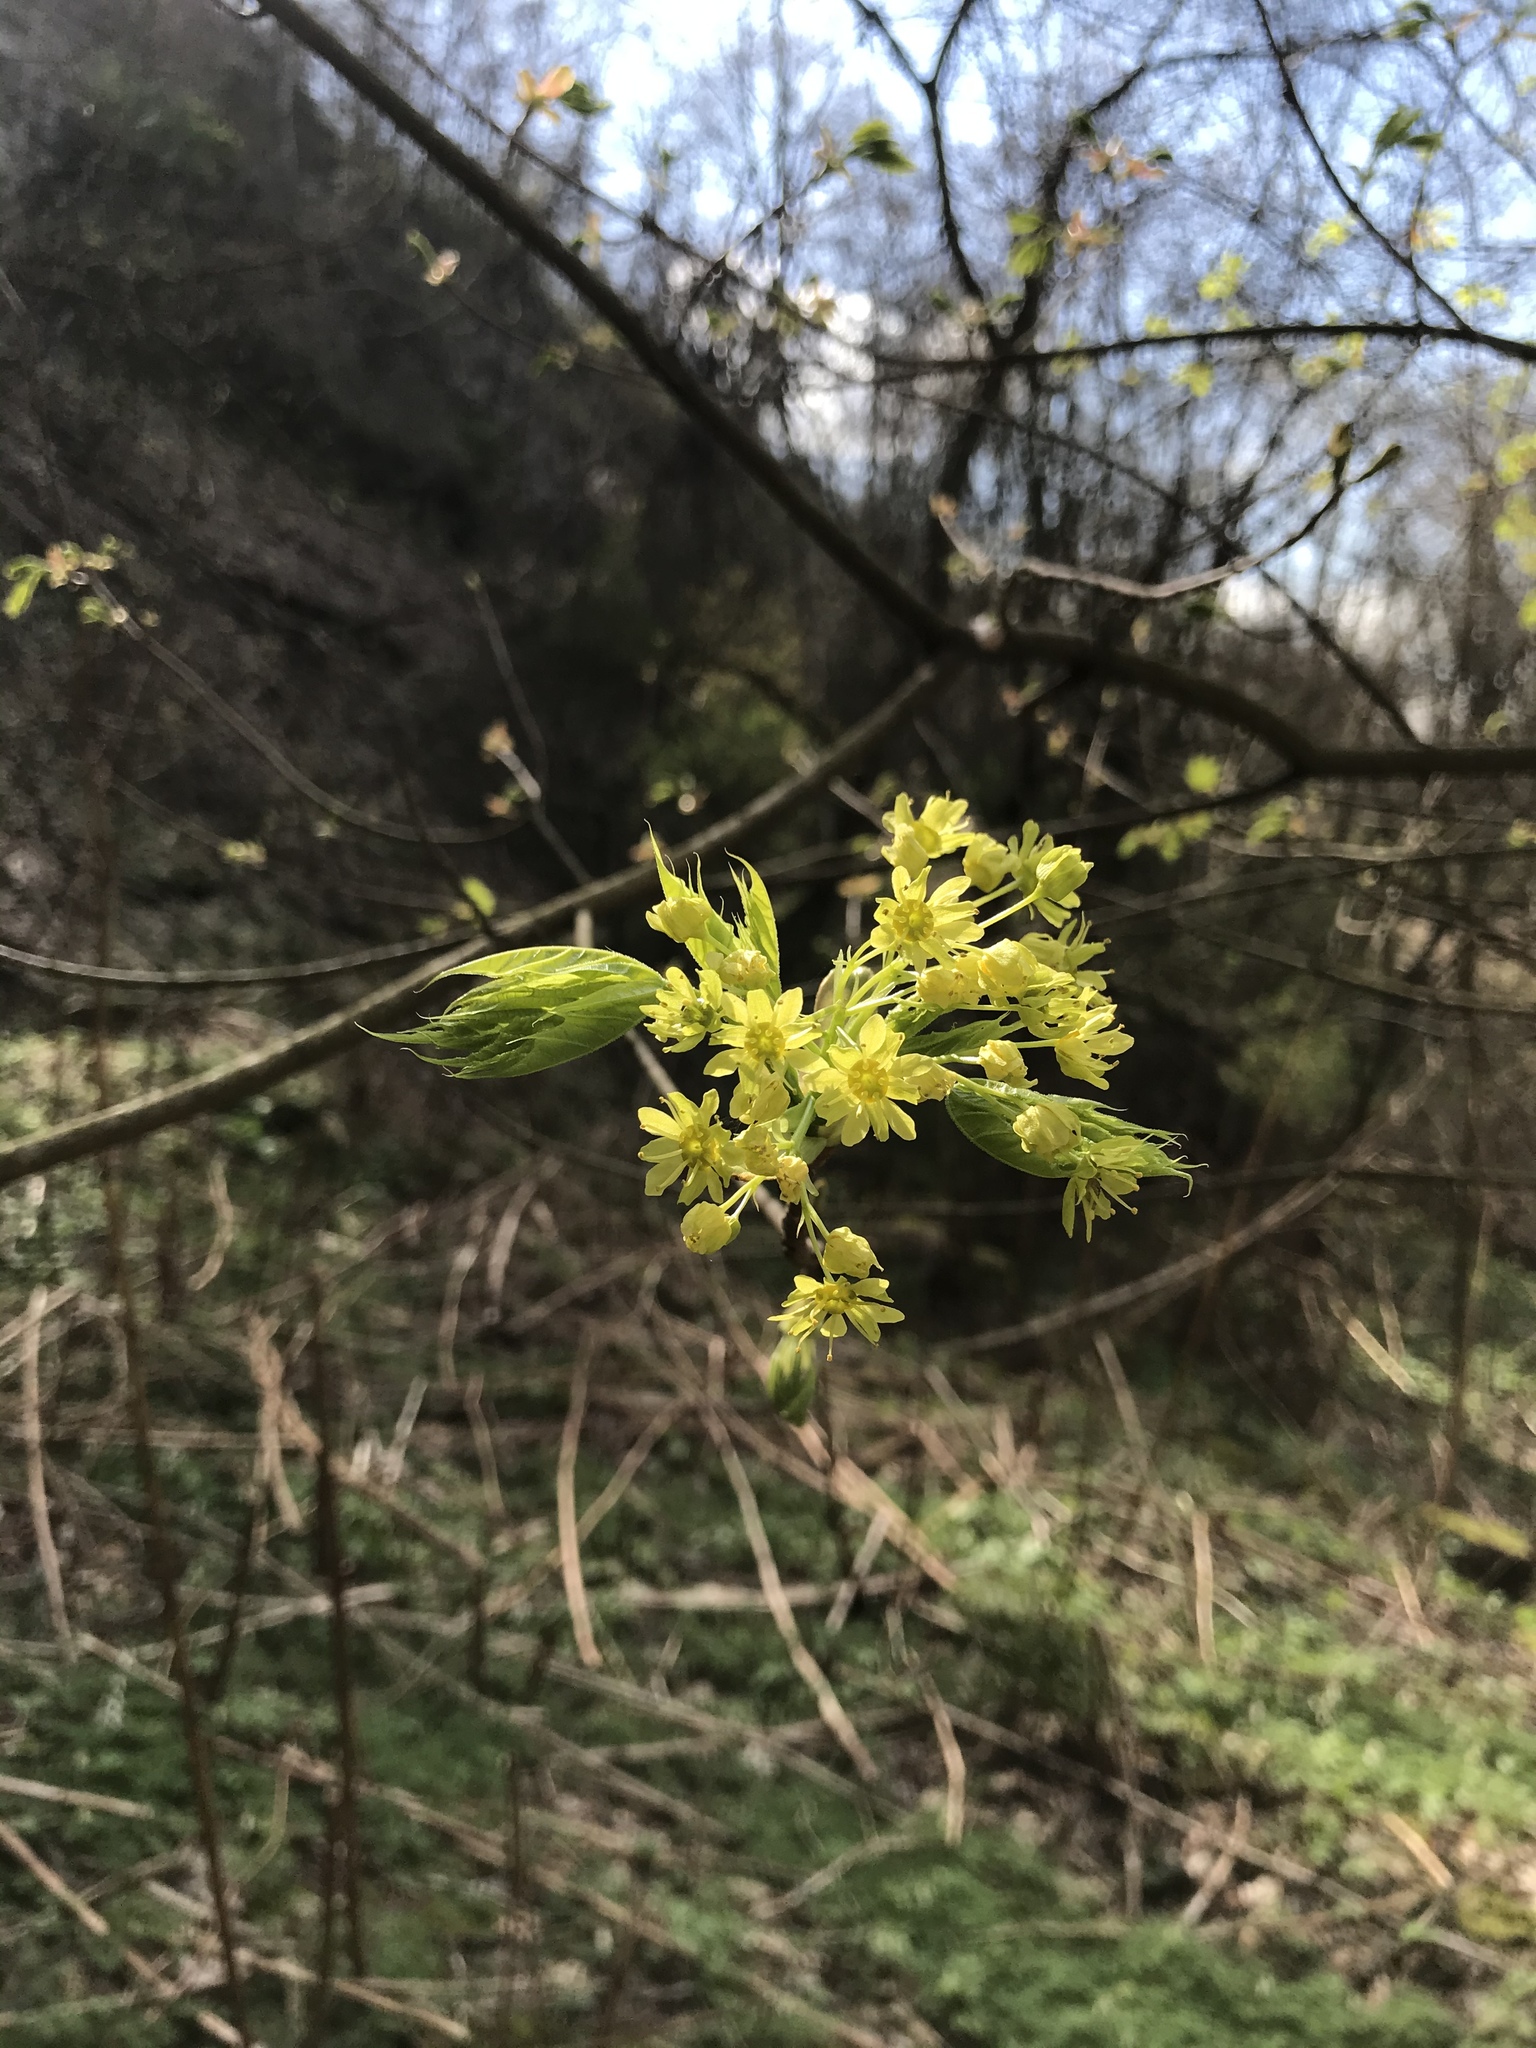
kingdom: Plantae
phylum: Tracheophyta
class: Magnoliopsida
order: Sapindales
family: Sapindaceae
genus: Acer
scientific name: Acer platanoides
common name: Norway maple
